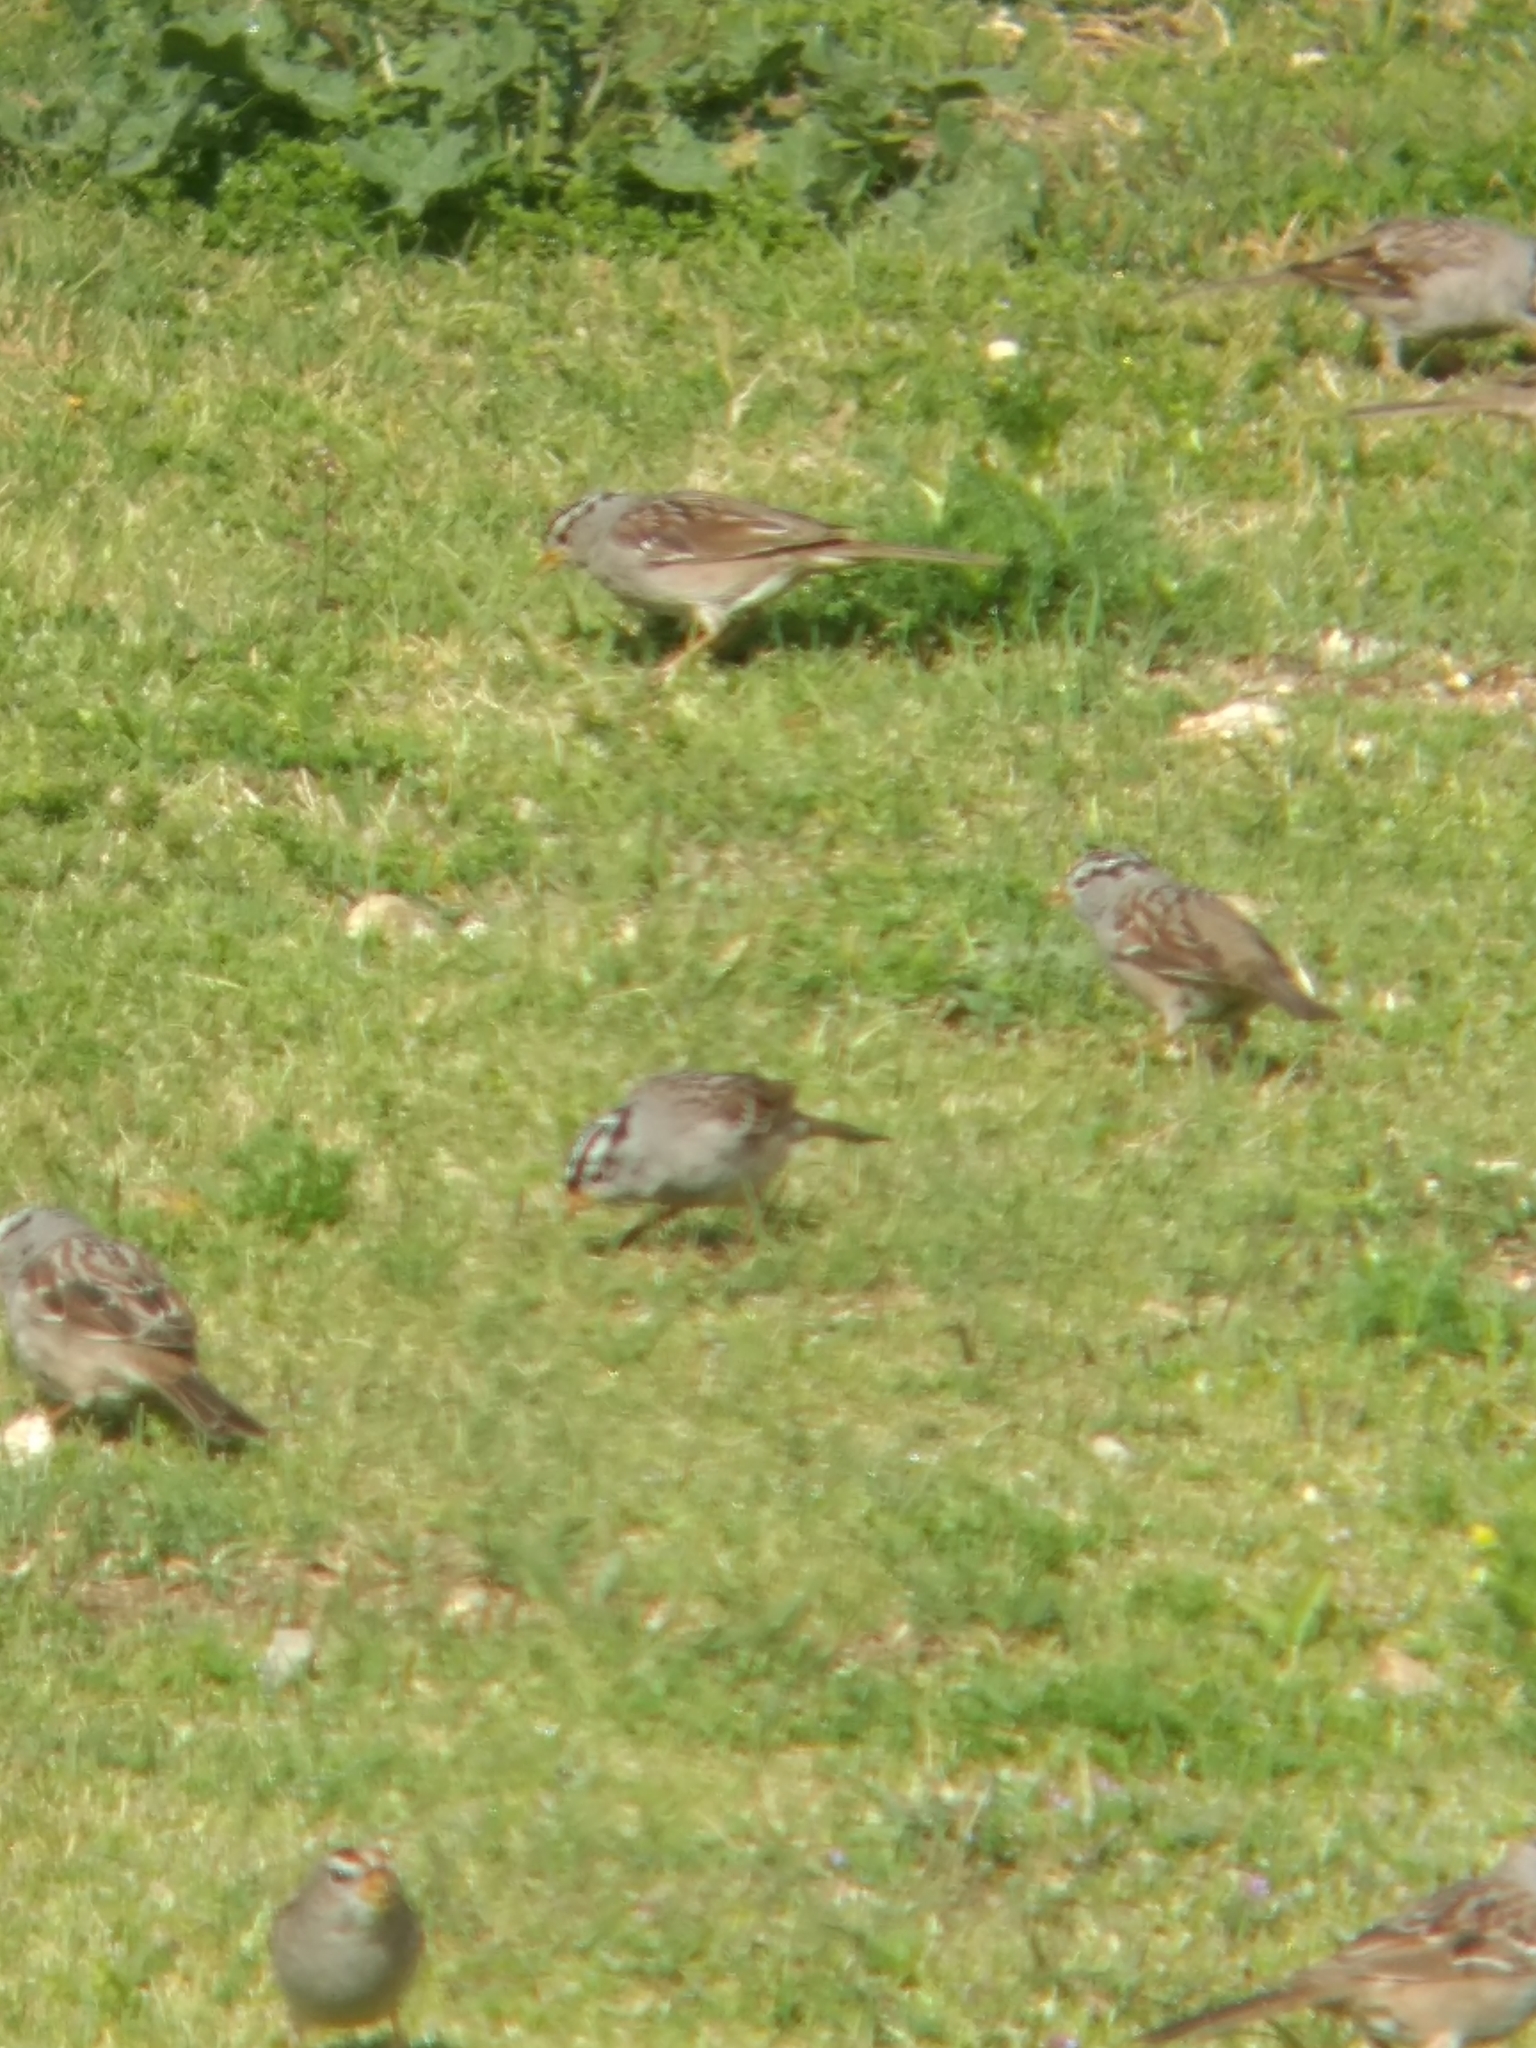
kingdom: Animalia
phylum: Chordata
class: Aves
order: Passeriformes
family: Passerellidae
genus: Zonotrichia
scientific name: Zonotrichia leucophrys
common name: White-crowned sparrow
